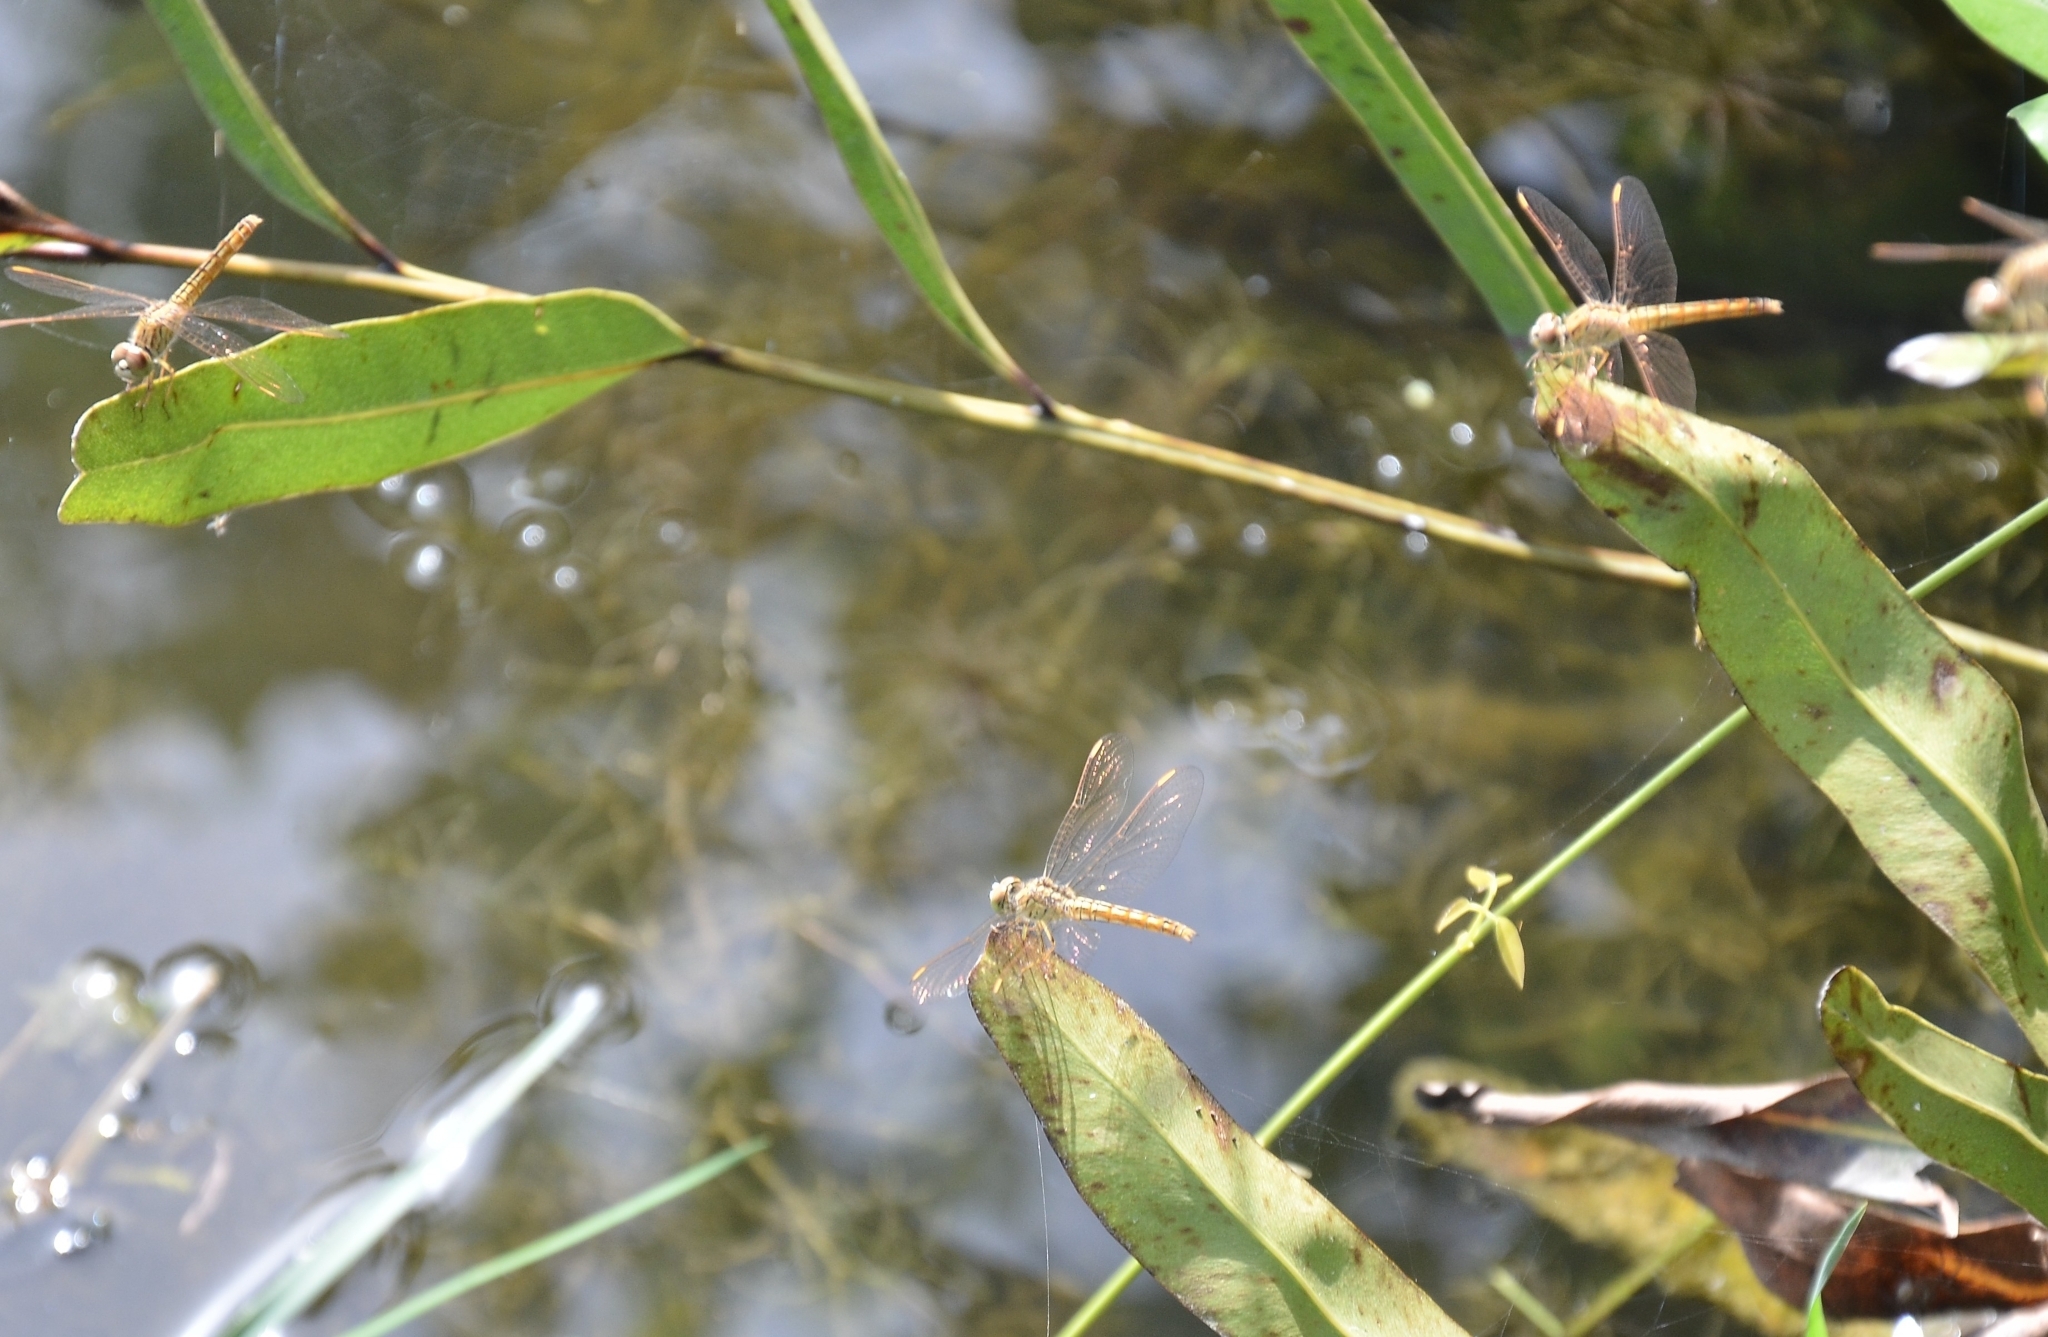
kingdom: Animalia
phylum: Arthropoda
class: Insecta
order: Odonata
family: Libellulidae
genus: Brachythemis
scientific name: Brachythemis contaminata
